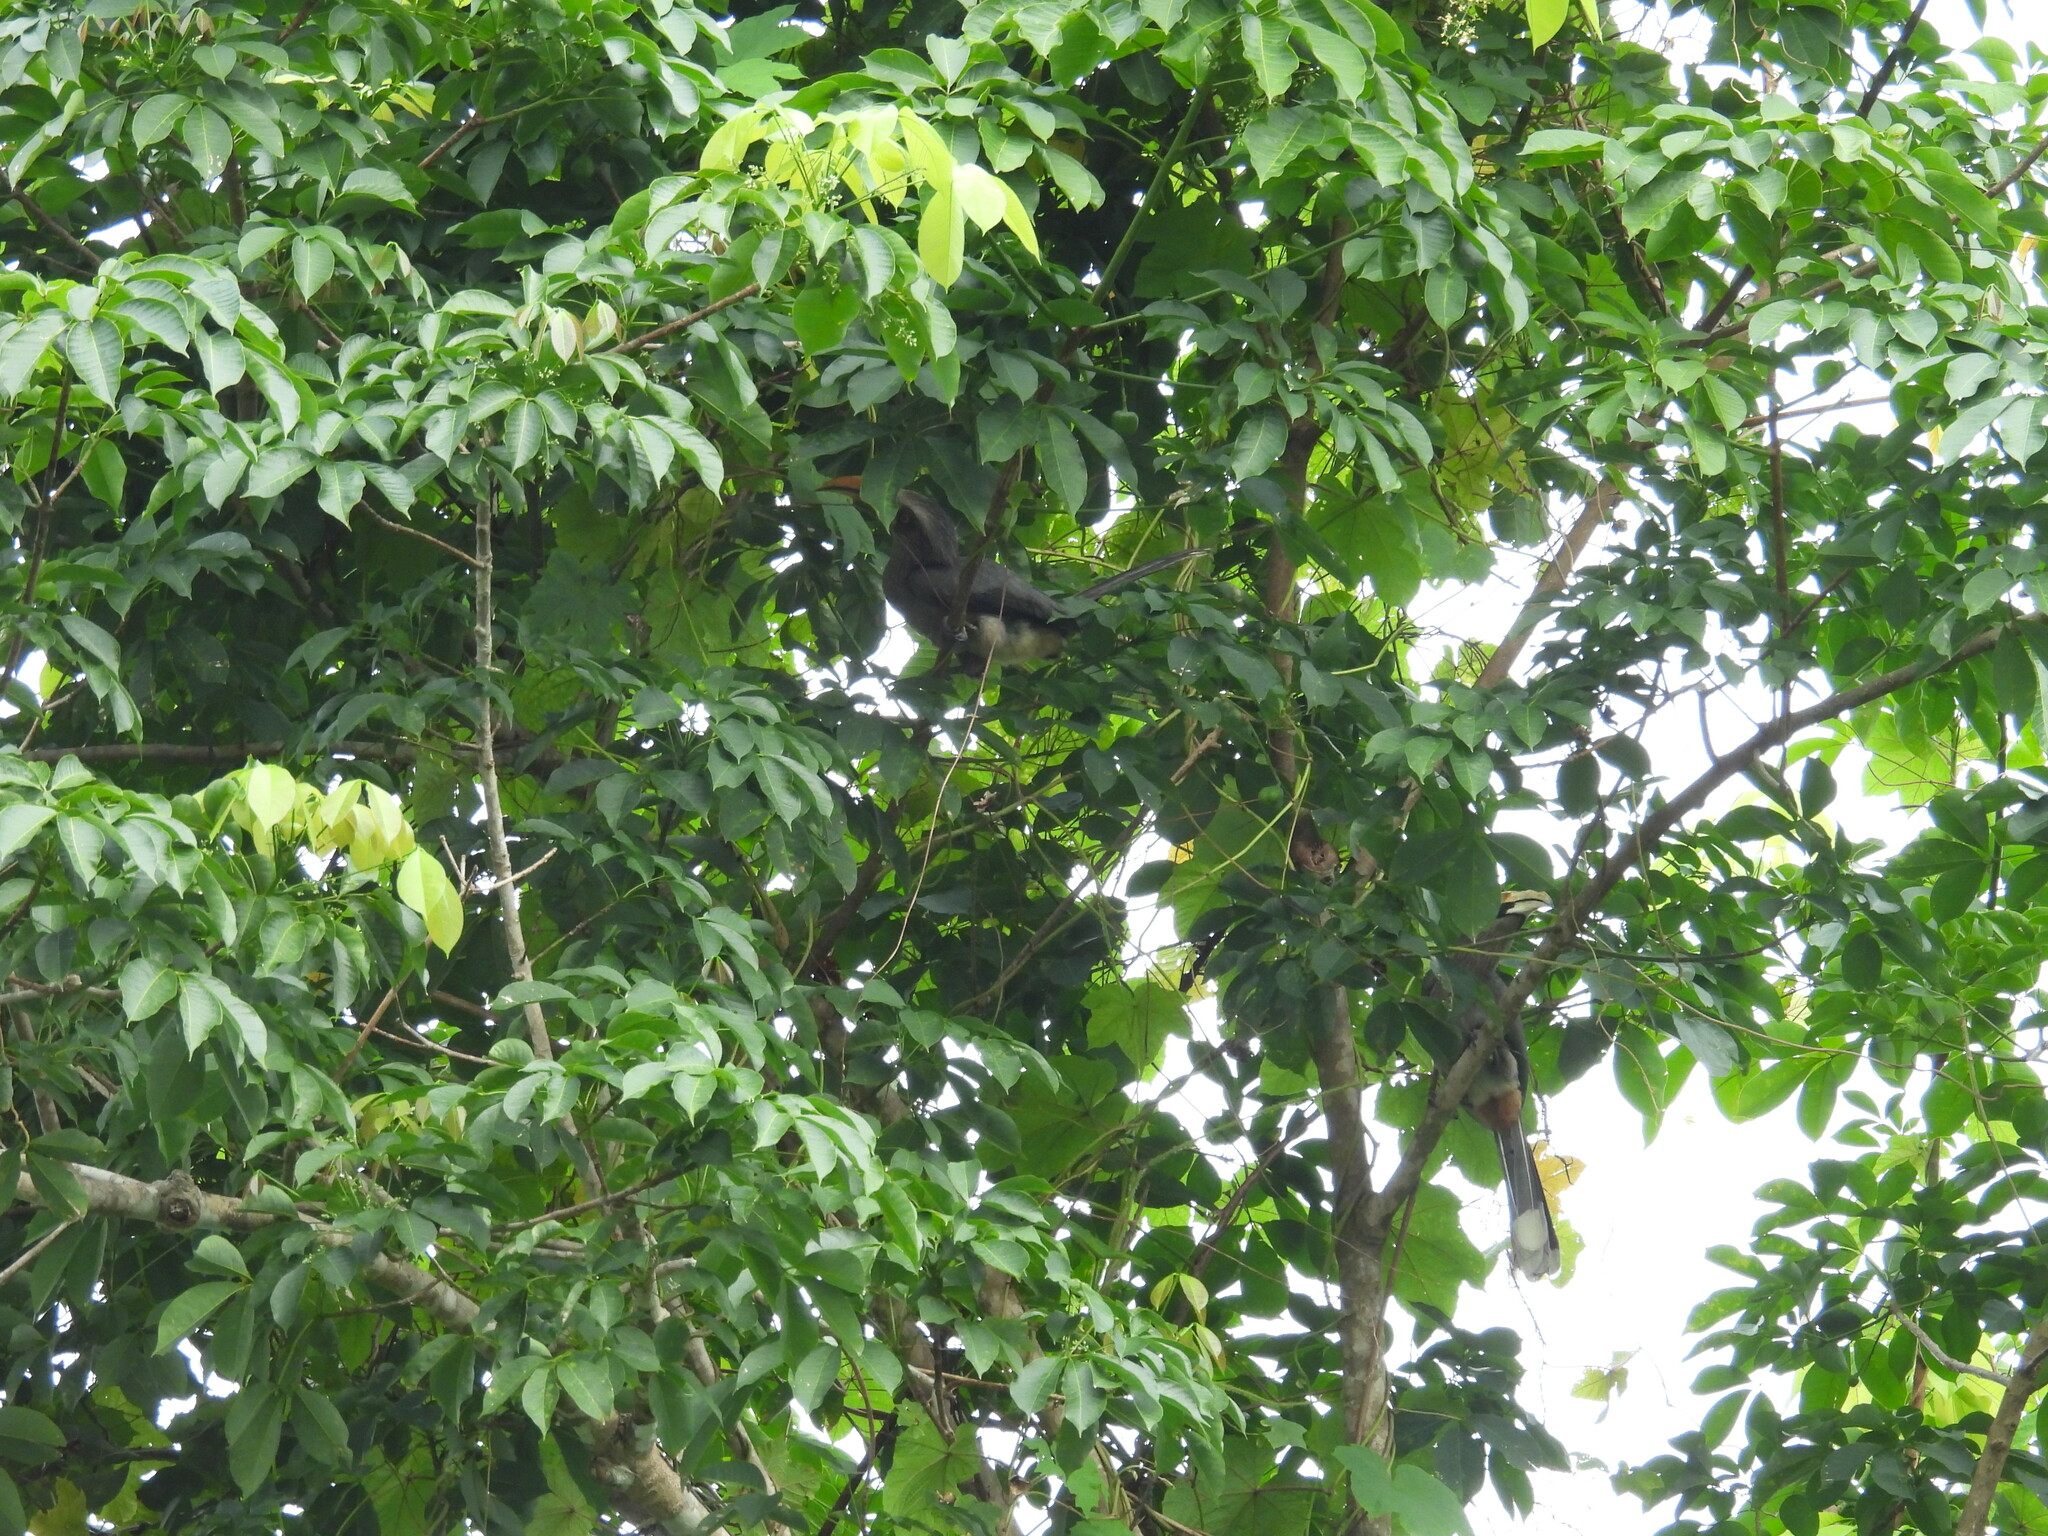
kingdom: Animalia
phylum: Chordata
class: Aves
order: Bucerotiformes
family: Bucerotidae
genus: Ocyceros
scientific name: Ocyceros griseus
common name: Malabar grey hornbill
